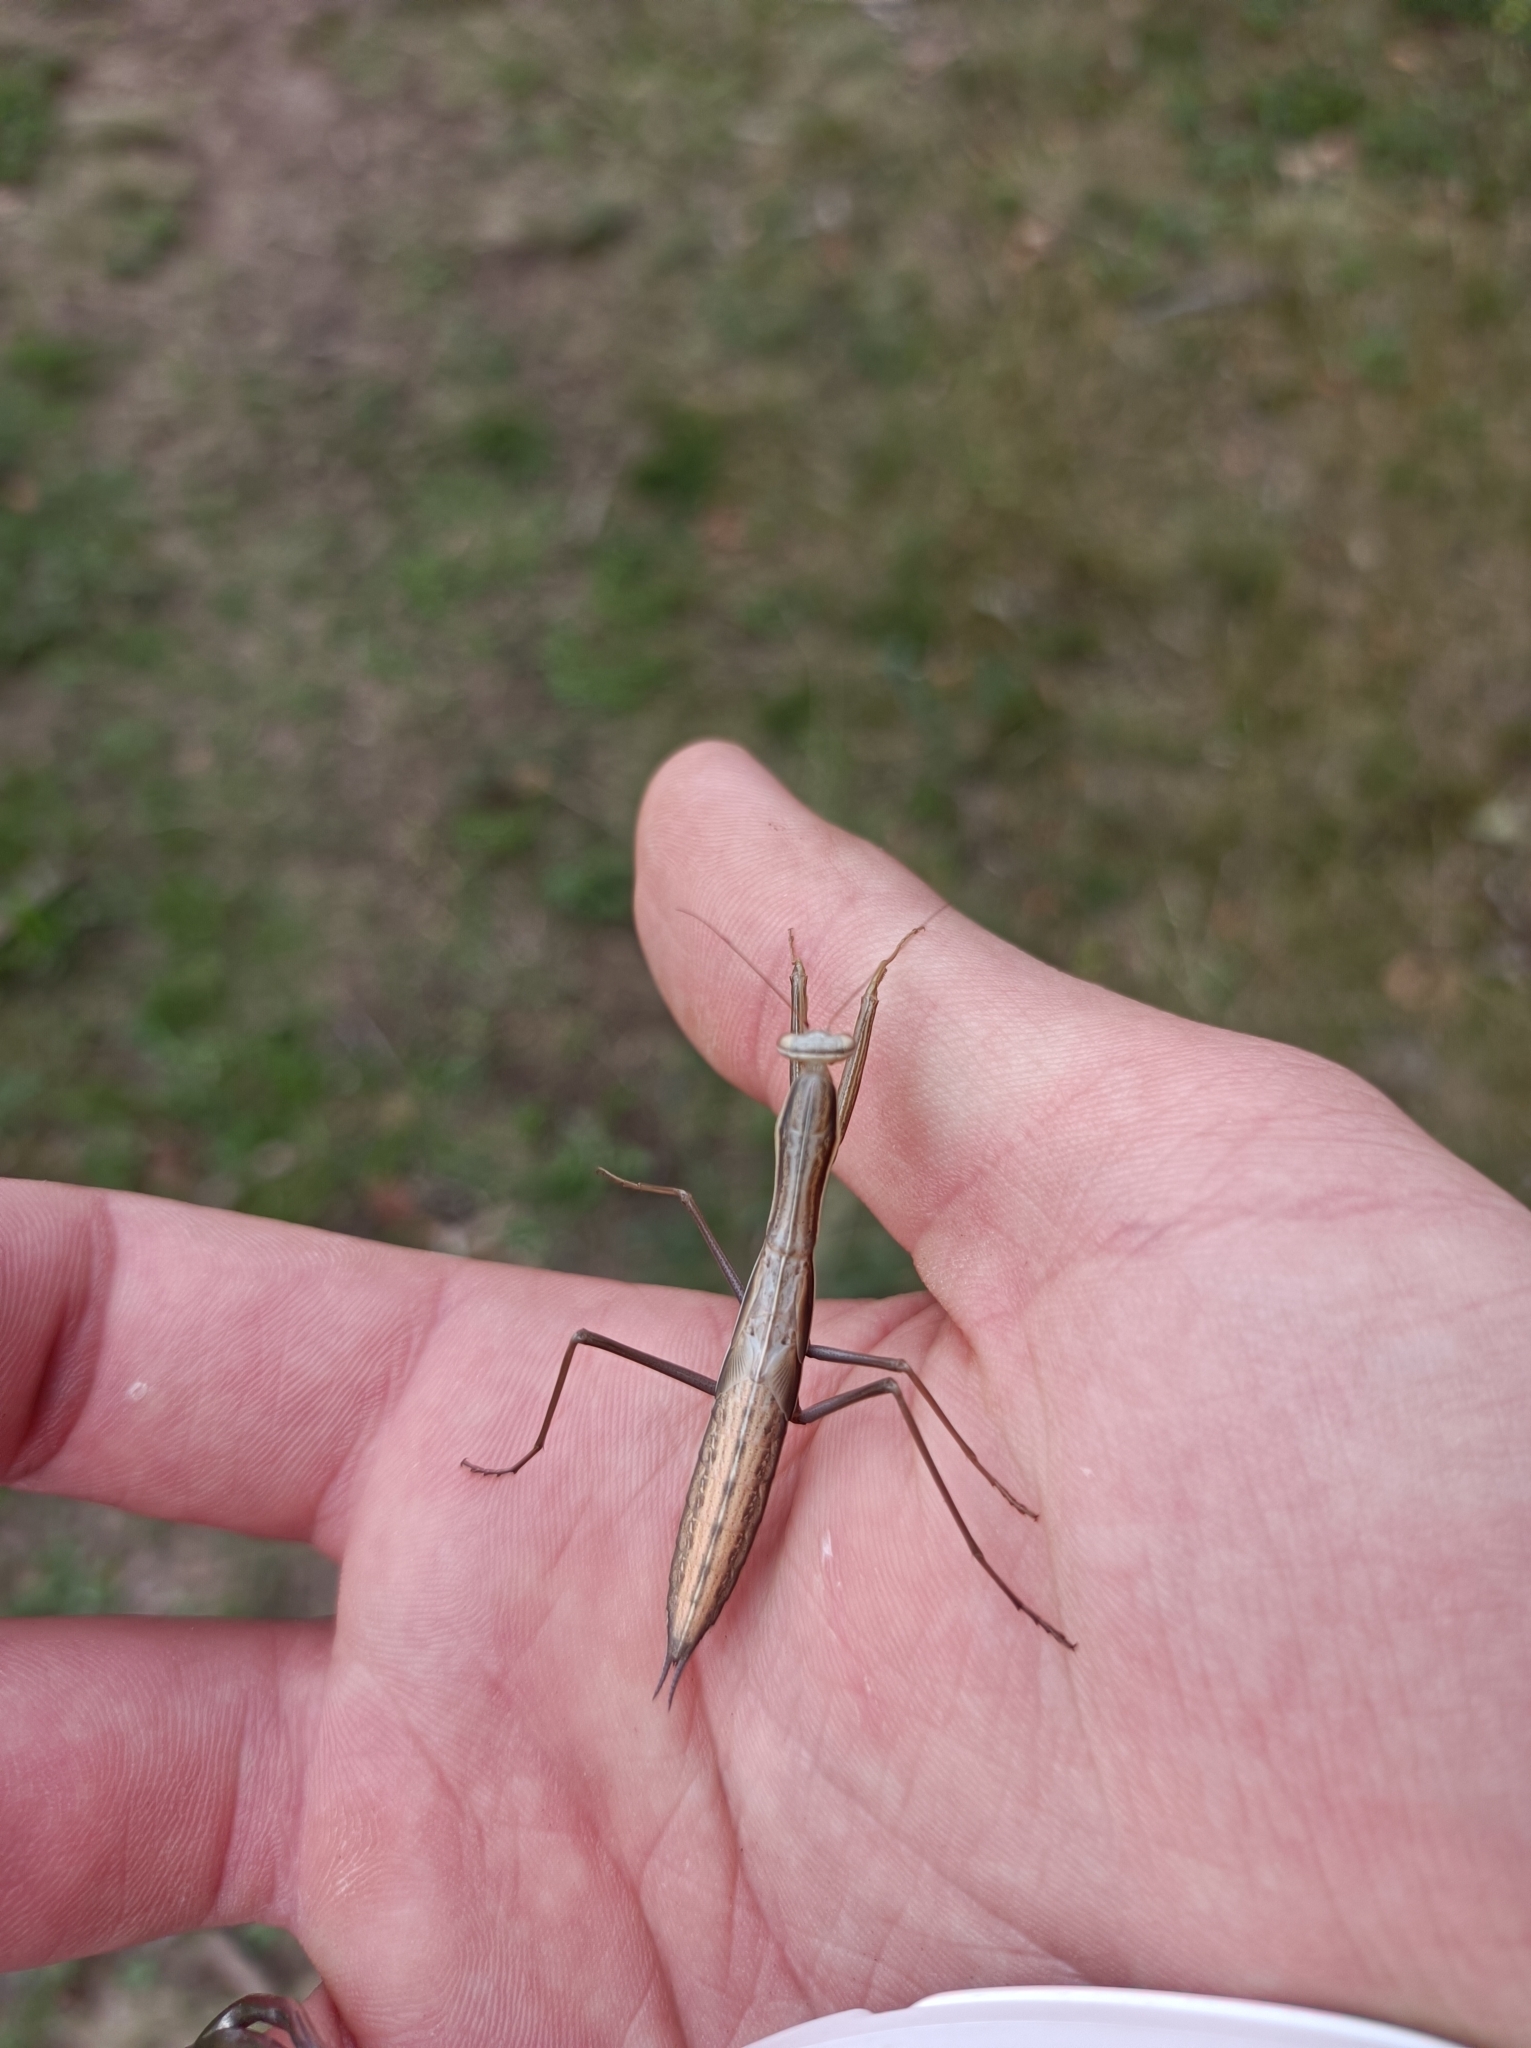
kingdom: Animalia
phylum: Arthropoda
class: Insecta
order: Mantodea
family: Mantidae
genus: Mantis
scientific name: Mantis religiosa
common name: Praying mantis
